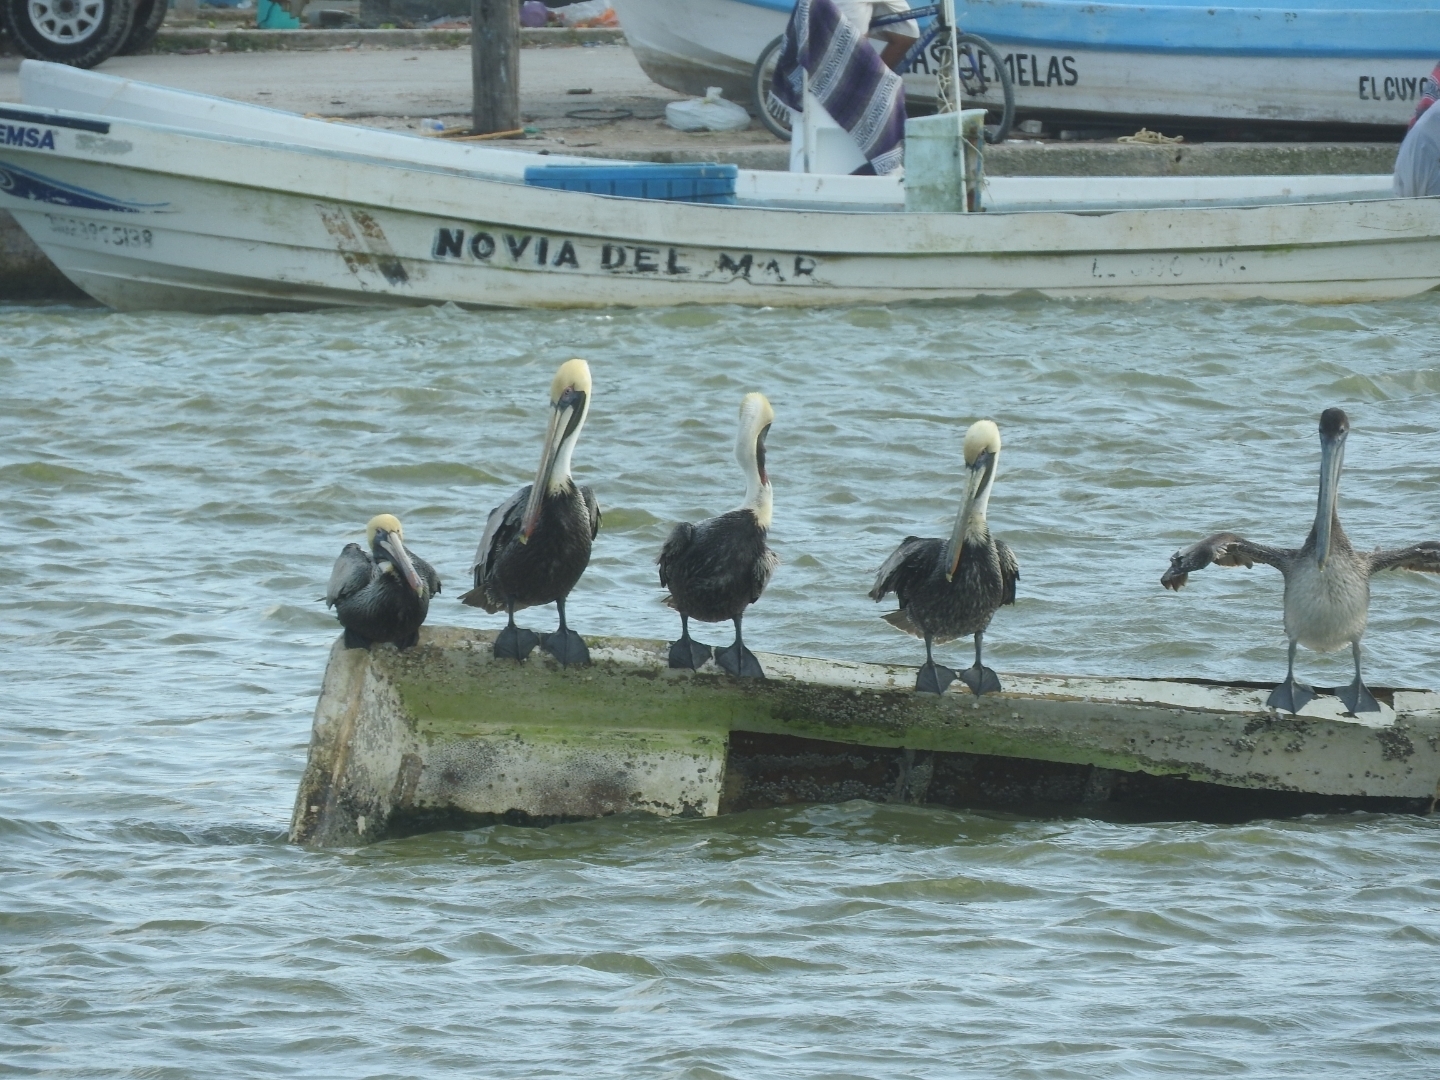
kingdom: Animalia
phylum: Chordata
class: Aves
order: Pelecaniformes
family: Pelecanidae
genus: Pelecanus
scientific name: Pelecanus occidentalis
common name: Brown pelican
